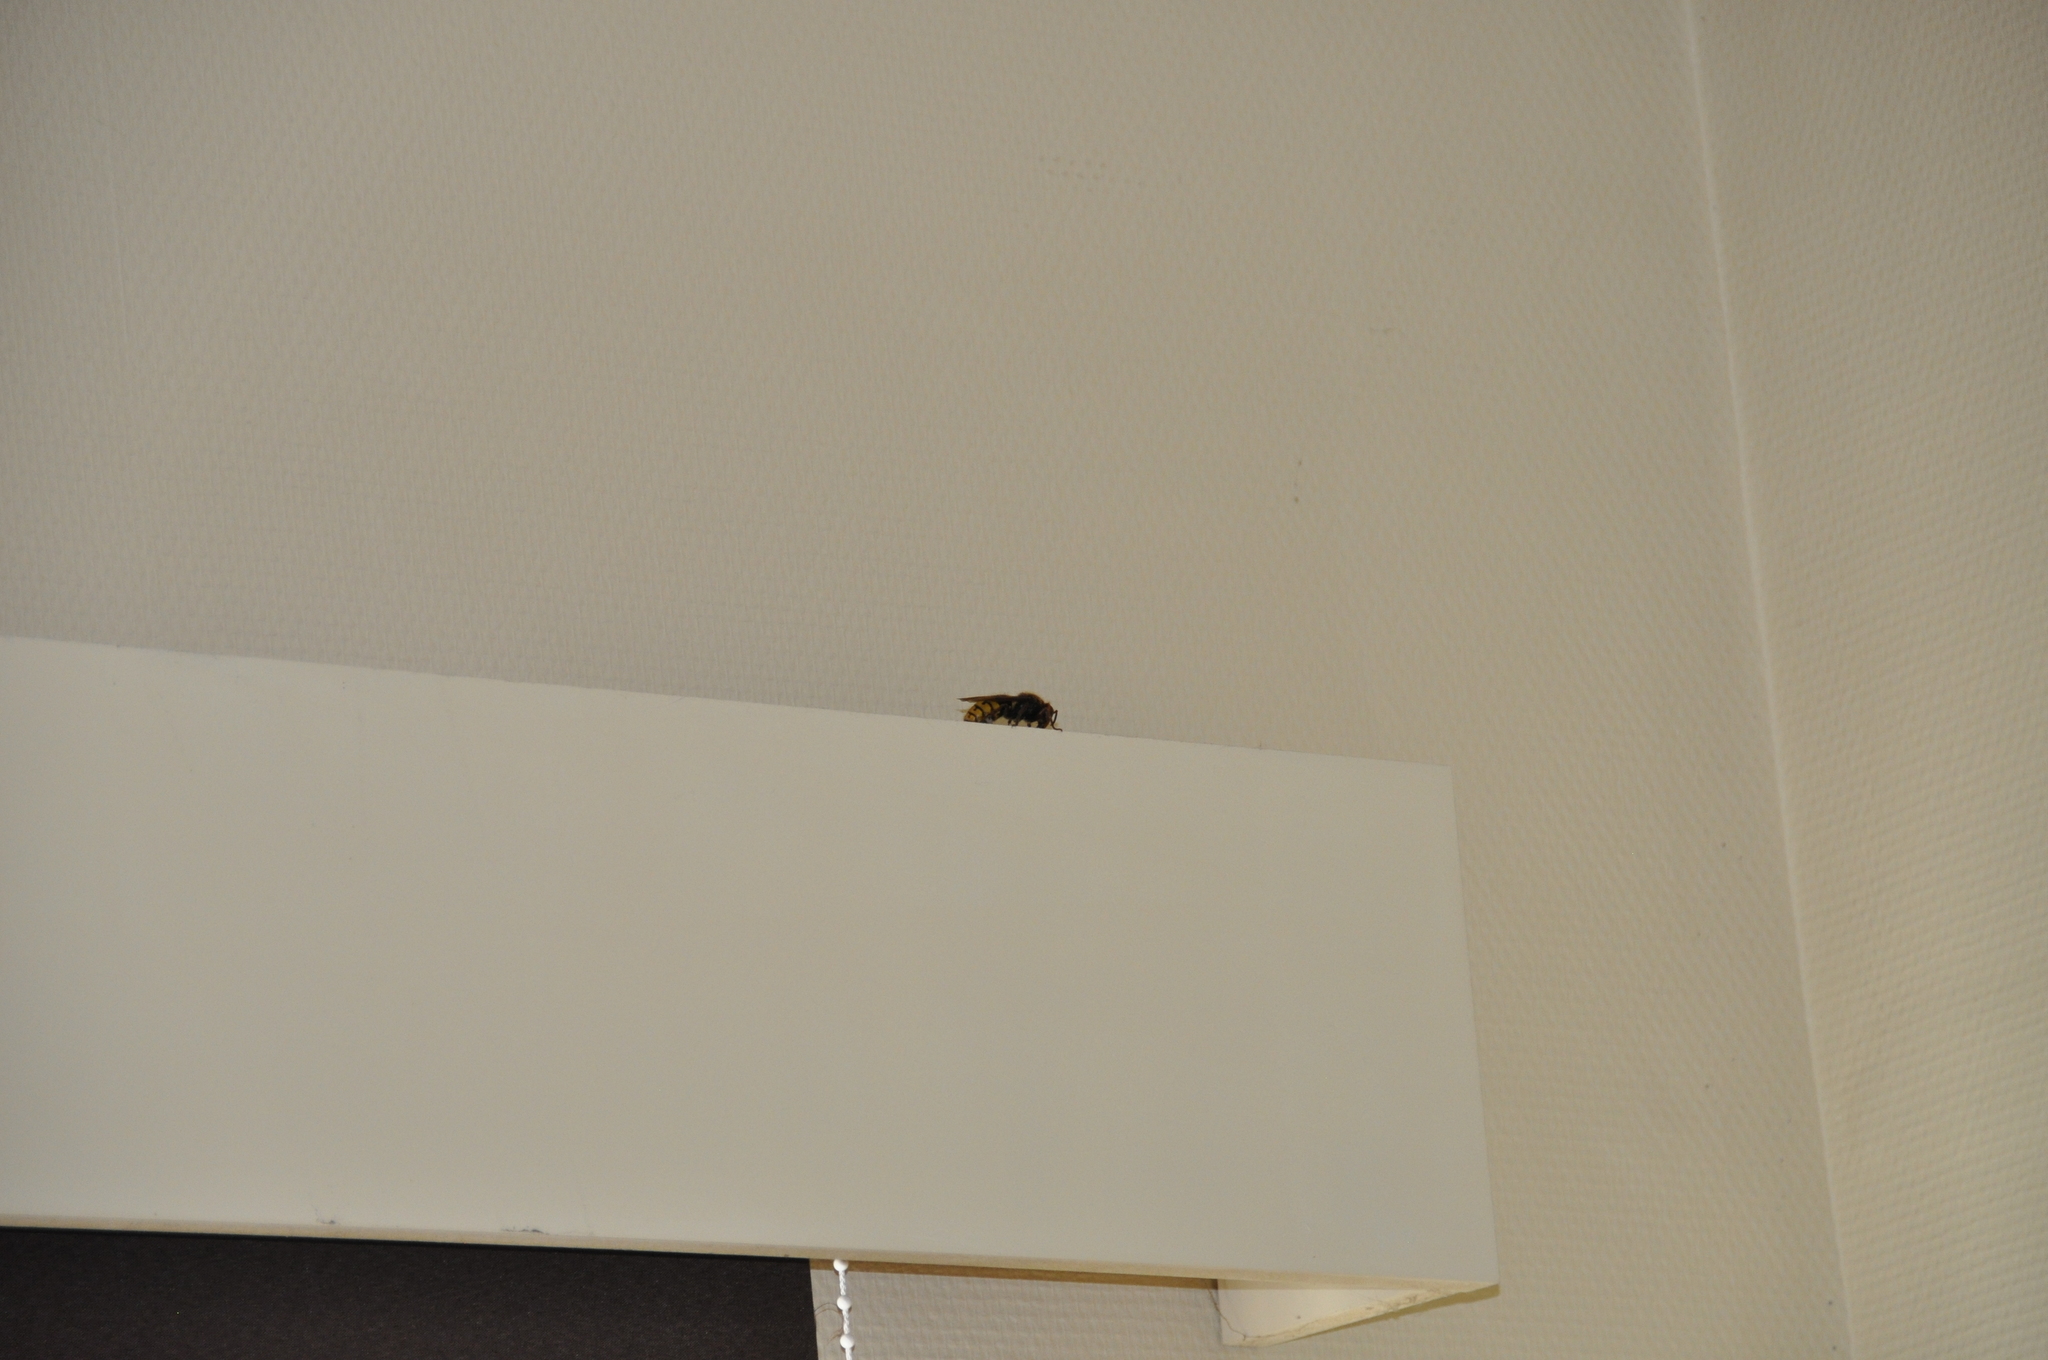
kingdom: Animalia
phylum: Arthropoda
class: Insecta
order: Hymenoptera
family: Vespidae
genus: Vespa
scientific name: Vespa crabro
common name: Hornet
